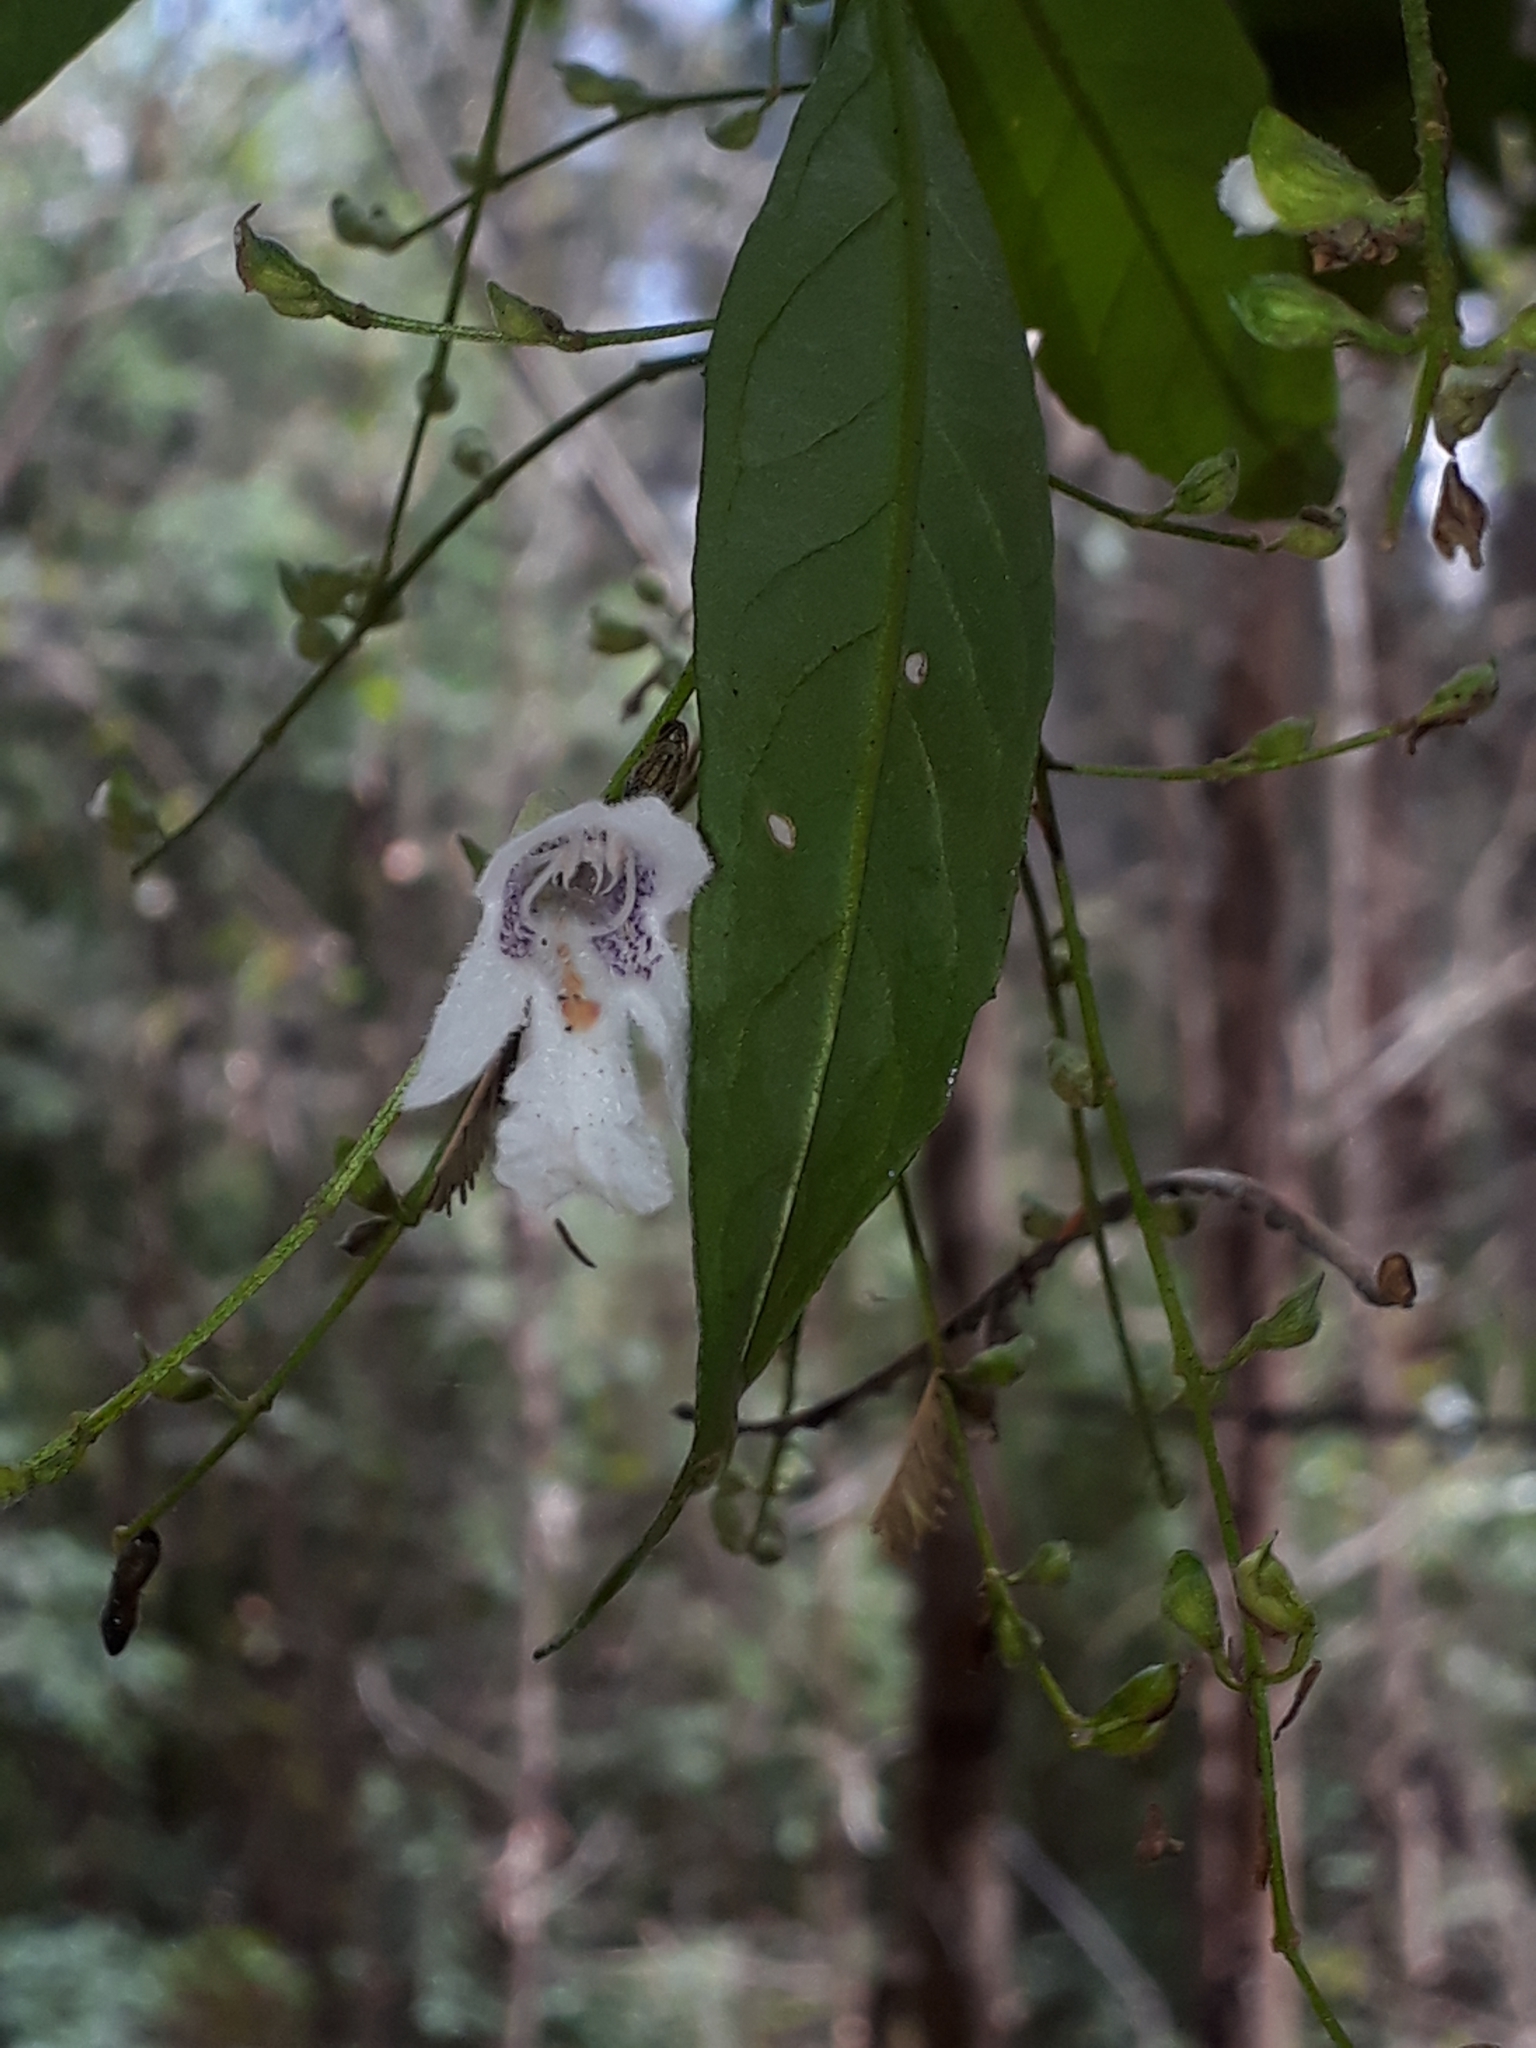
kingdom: Plantae
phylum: Tracheophyta
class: Magnoliopsida
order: Lamiales
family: Lamiaceae
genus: Prostanthera
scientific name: Prostanthera lasianthos
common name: Mountain-lilac
